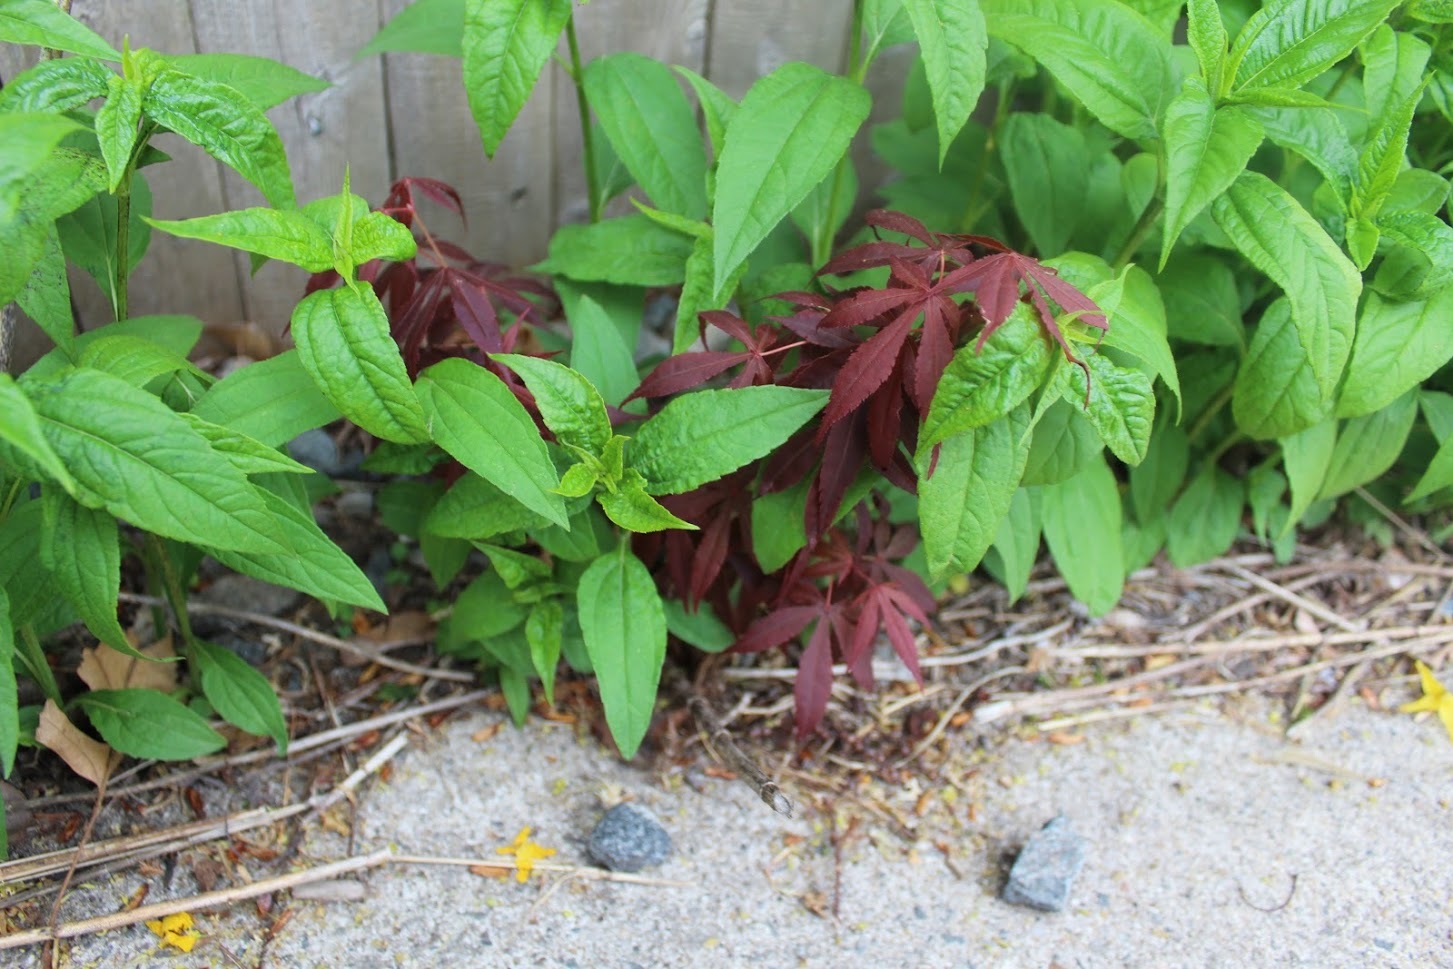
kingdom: Plantae
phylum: Tracheophyta
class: Magnoliopsida
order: Sapindales
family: Sapindaceae
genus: Acer
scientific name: Acer palmatum
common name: Japanese maple
